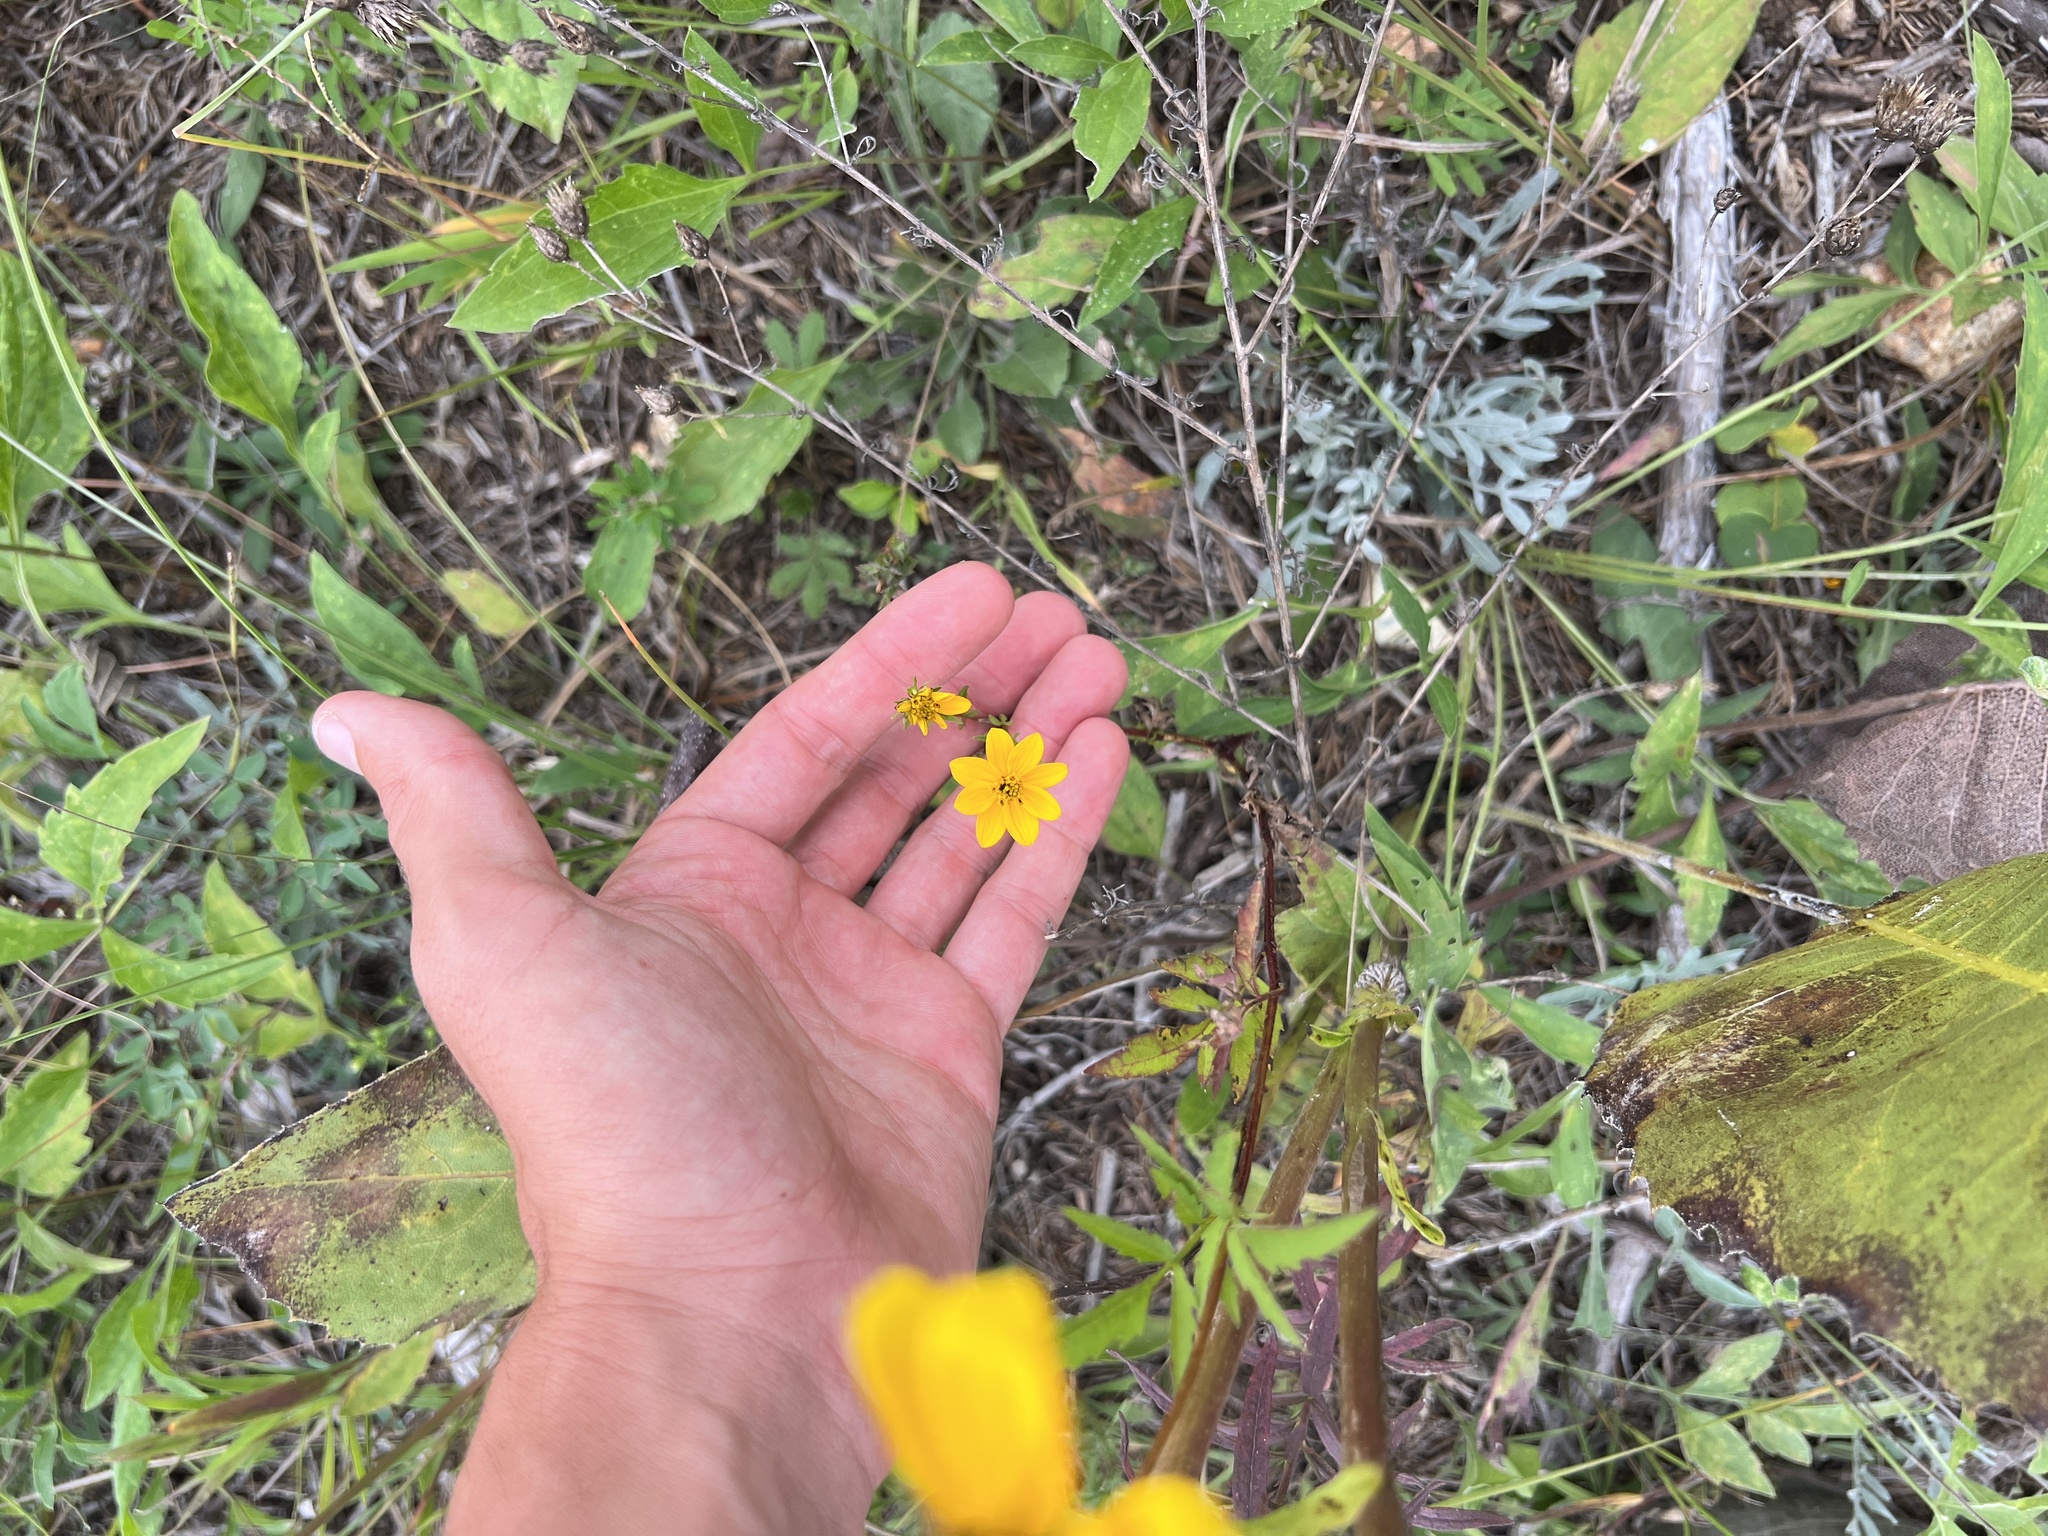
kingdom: Plantae
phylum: Tracheophyta
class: Magnoliopsida
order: Asterales
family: Asteraceae
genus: Bidens
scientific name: Bidens polylepis
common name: Awnless beggarticks
